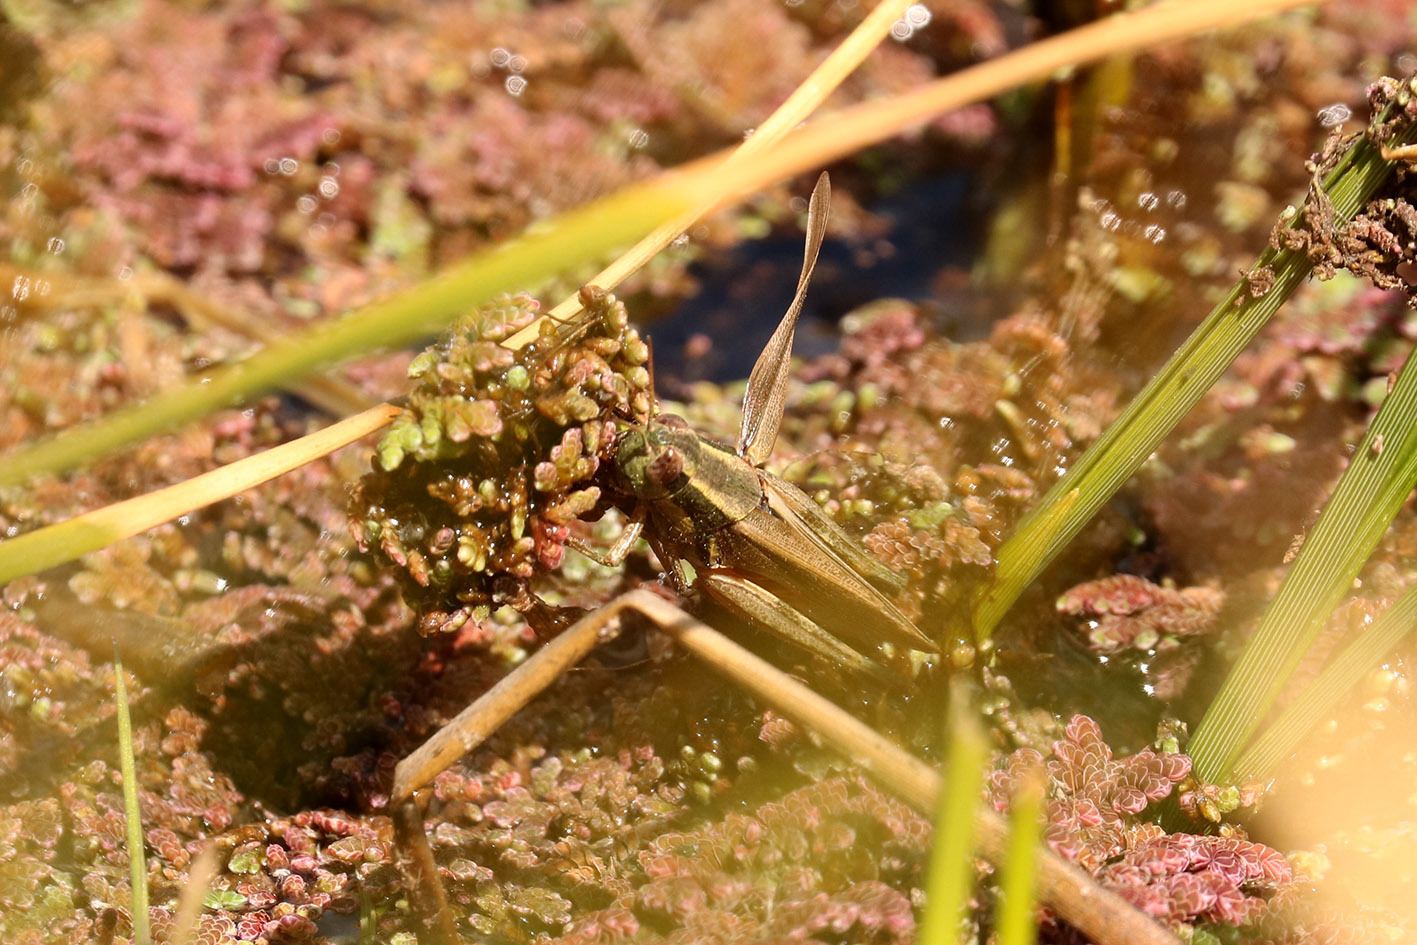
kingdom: Animalia
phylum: Arthropoda
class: Insecta
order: Orthoptera
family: Acrididae
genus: Dichroplus
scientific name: Dichroplus elongatus
